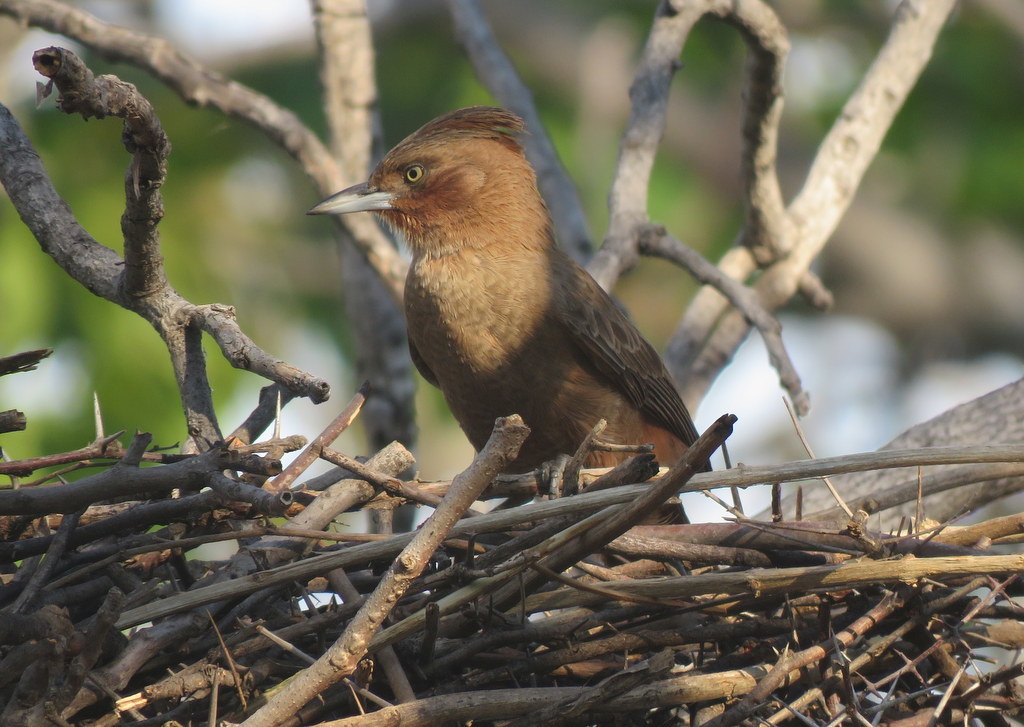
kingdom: Animalia
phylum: Chordata
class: Aves
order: Passeriformes
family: Furnariidae
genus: Pseudoseisura
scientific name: Pseudoseisura lophotes
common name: Brown cacholote
